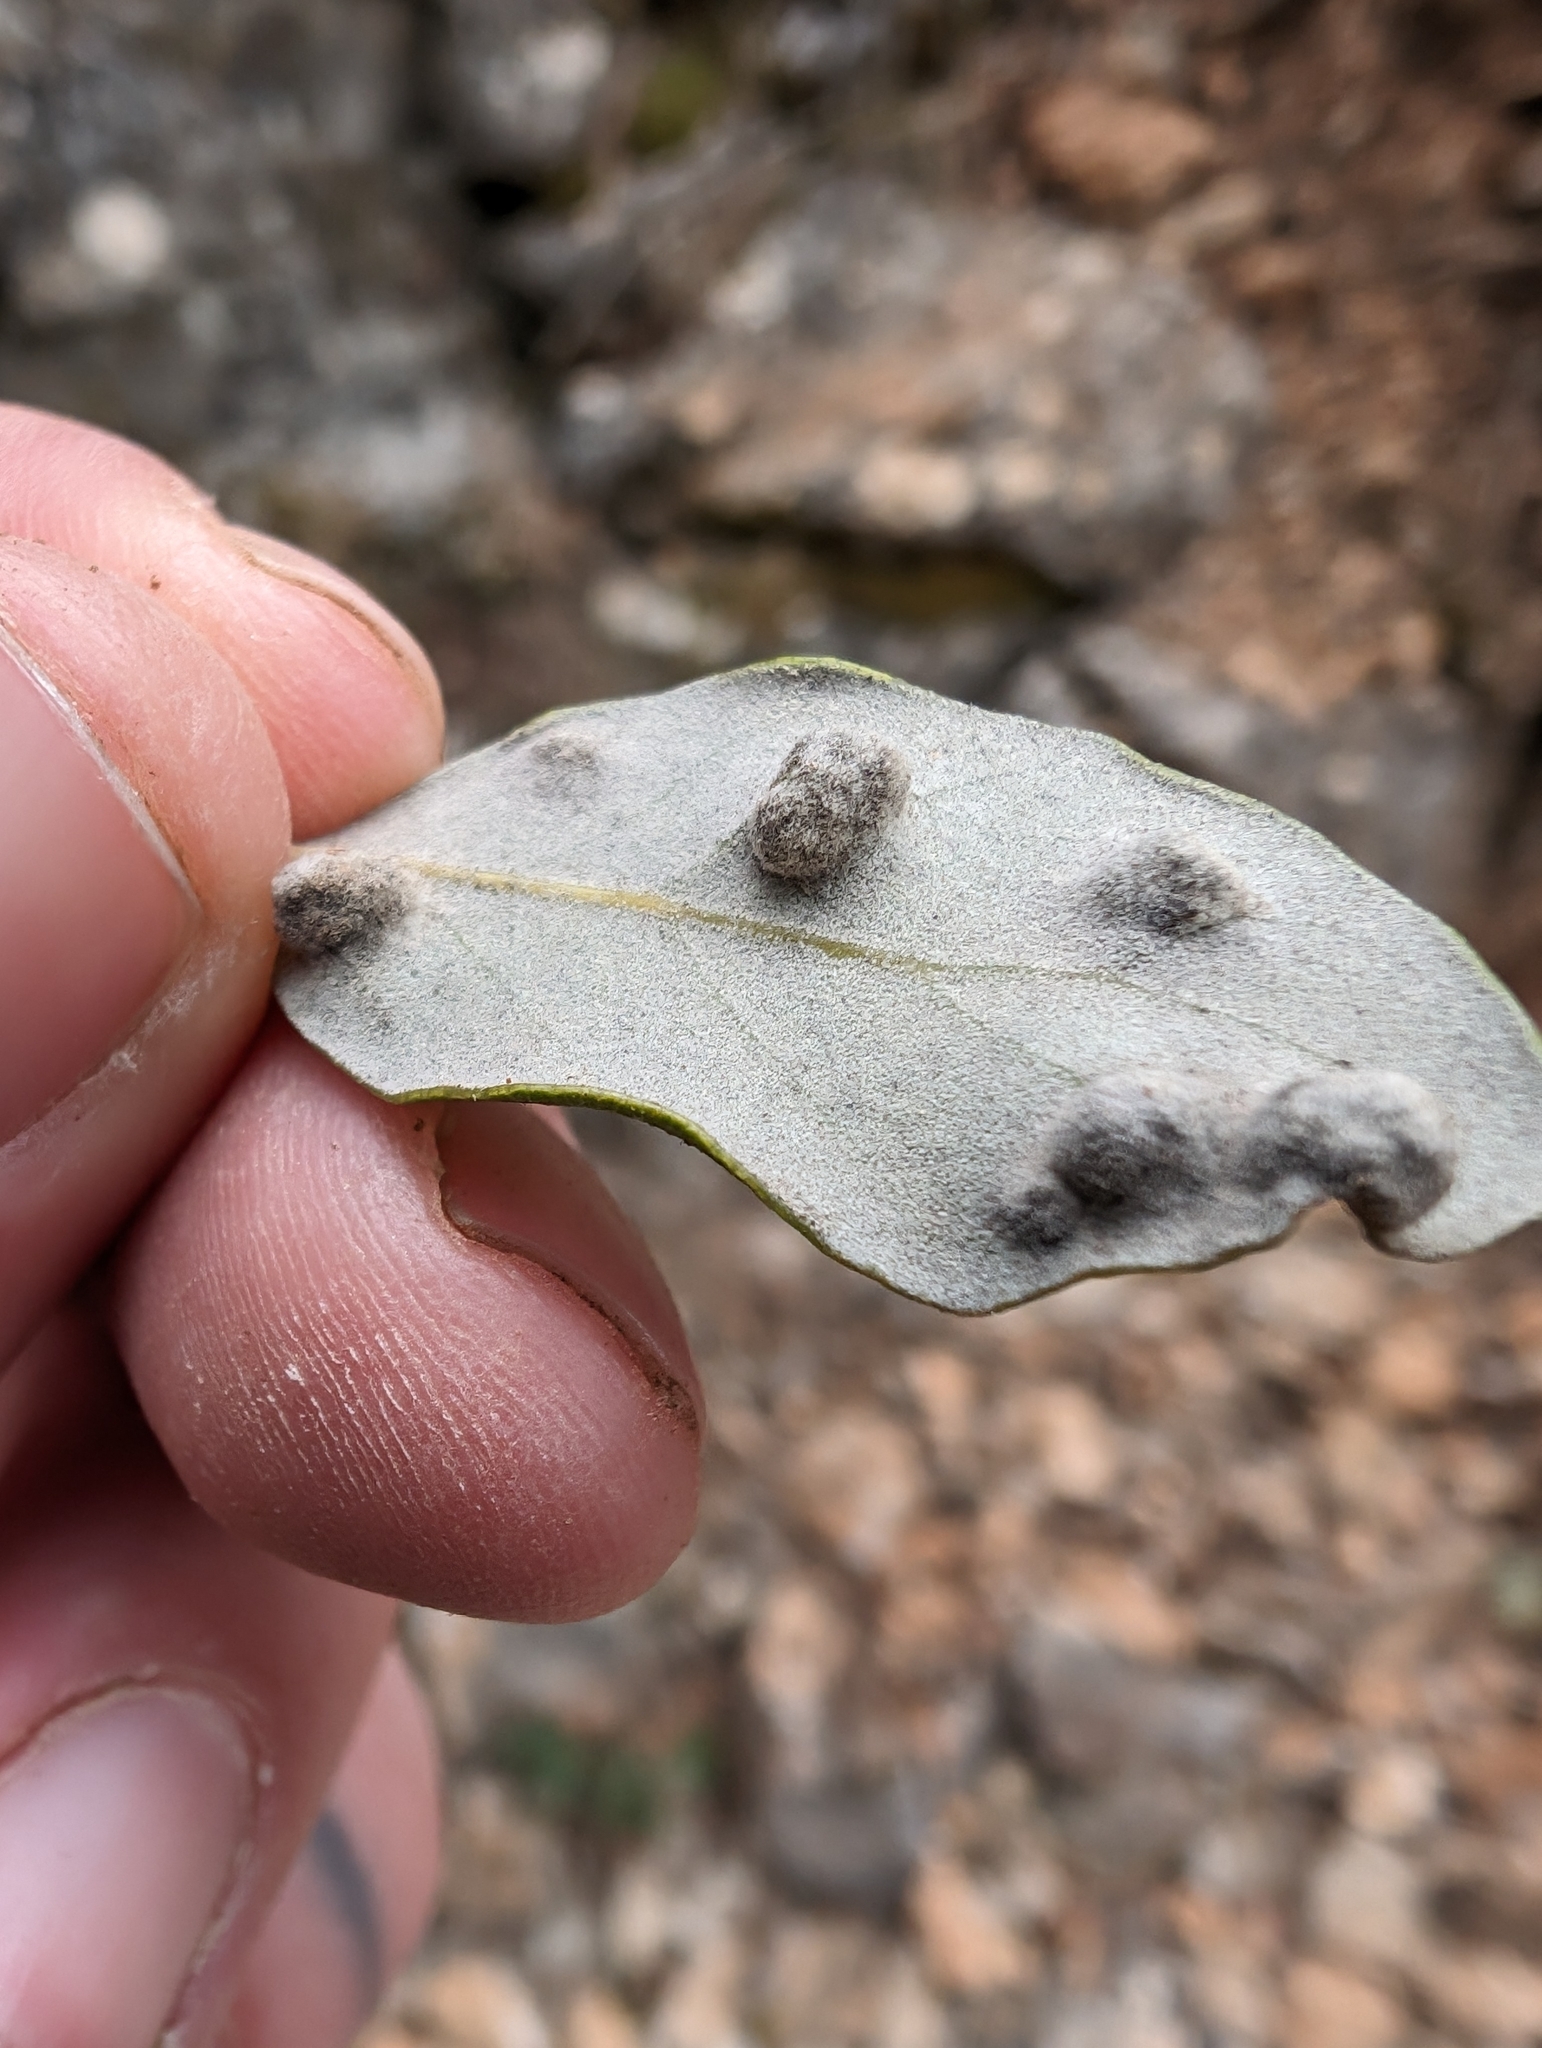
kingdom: Animalia
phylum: Arthropoda
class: Insecta
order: Diptera
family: Cecidomyiidae
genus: Dryomyia
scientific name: Dryomyia lichtensteinii
